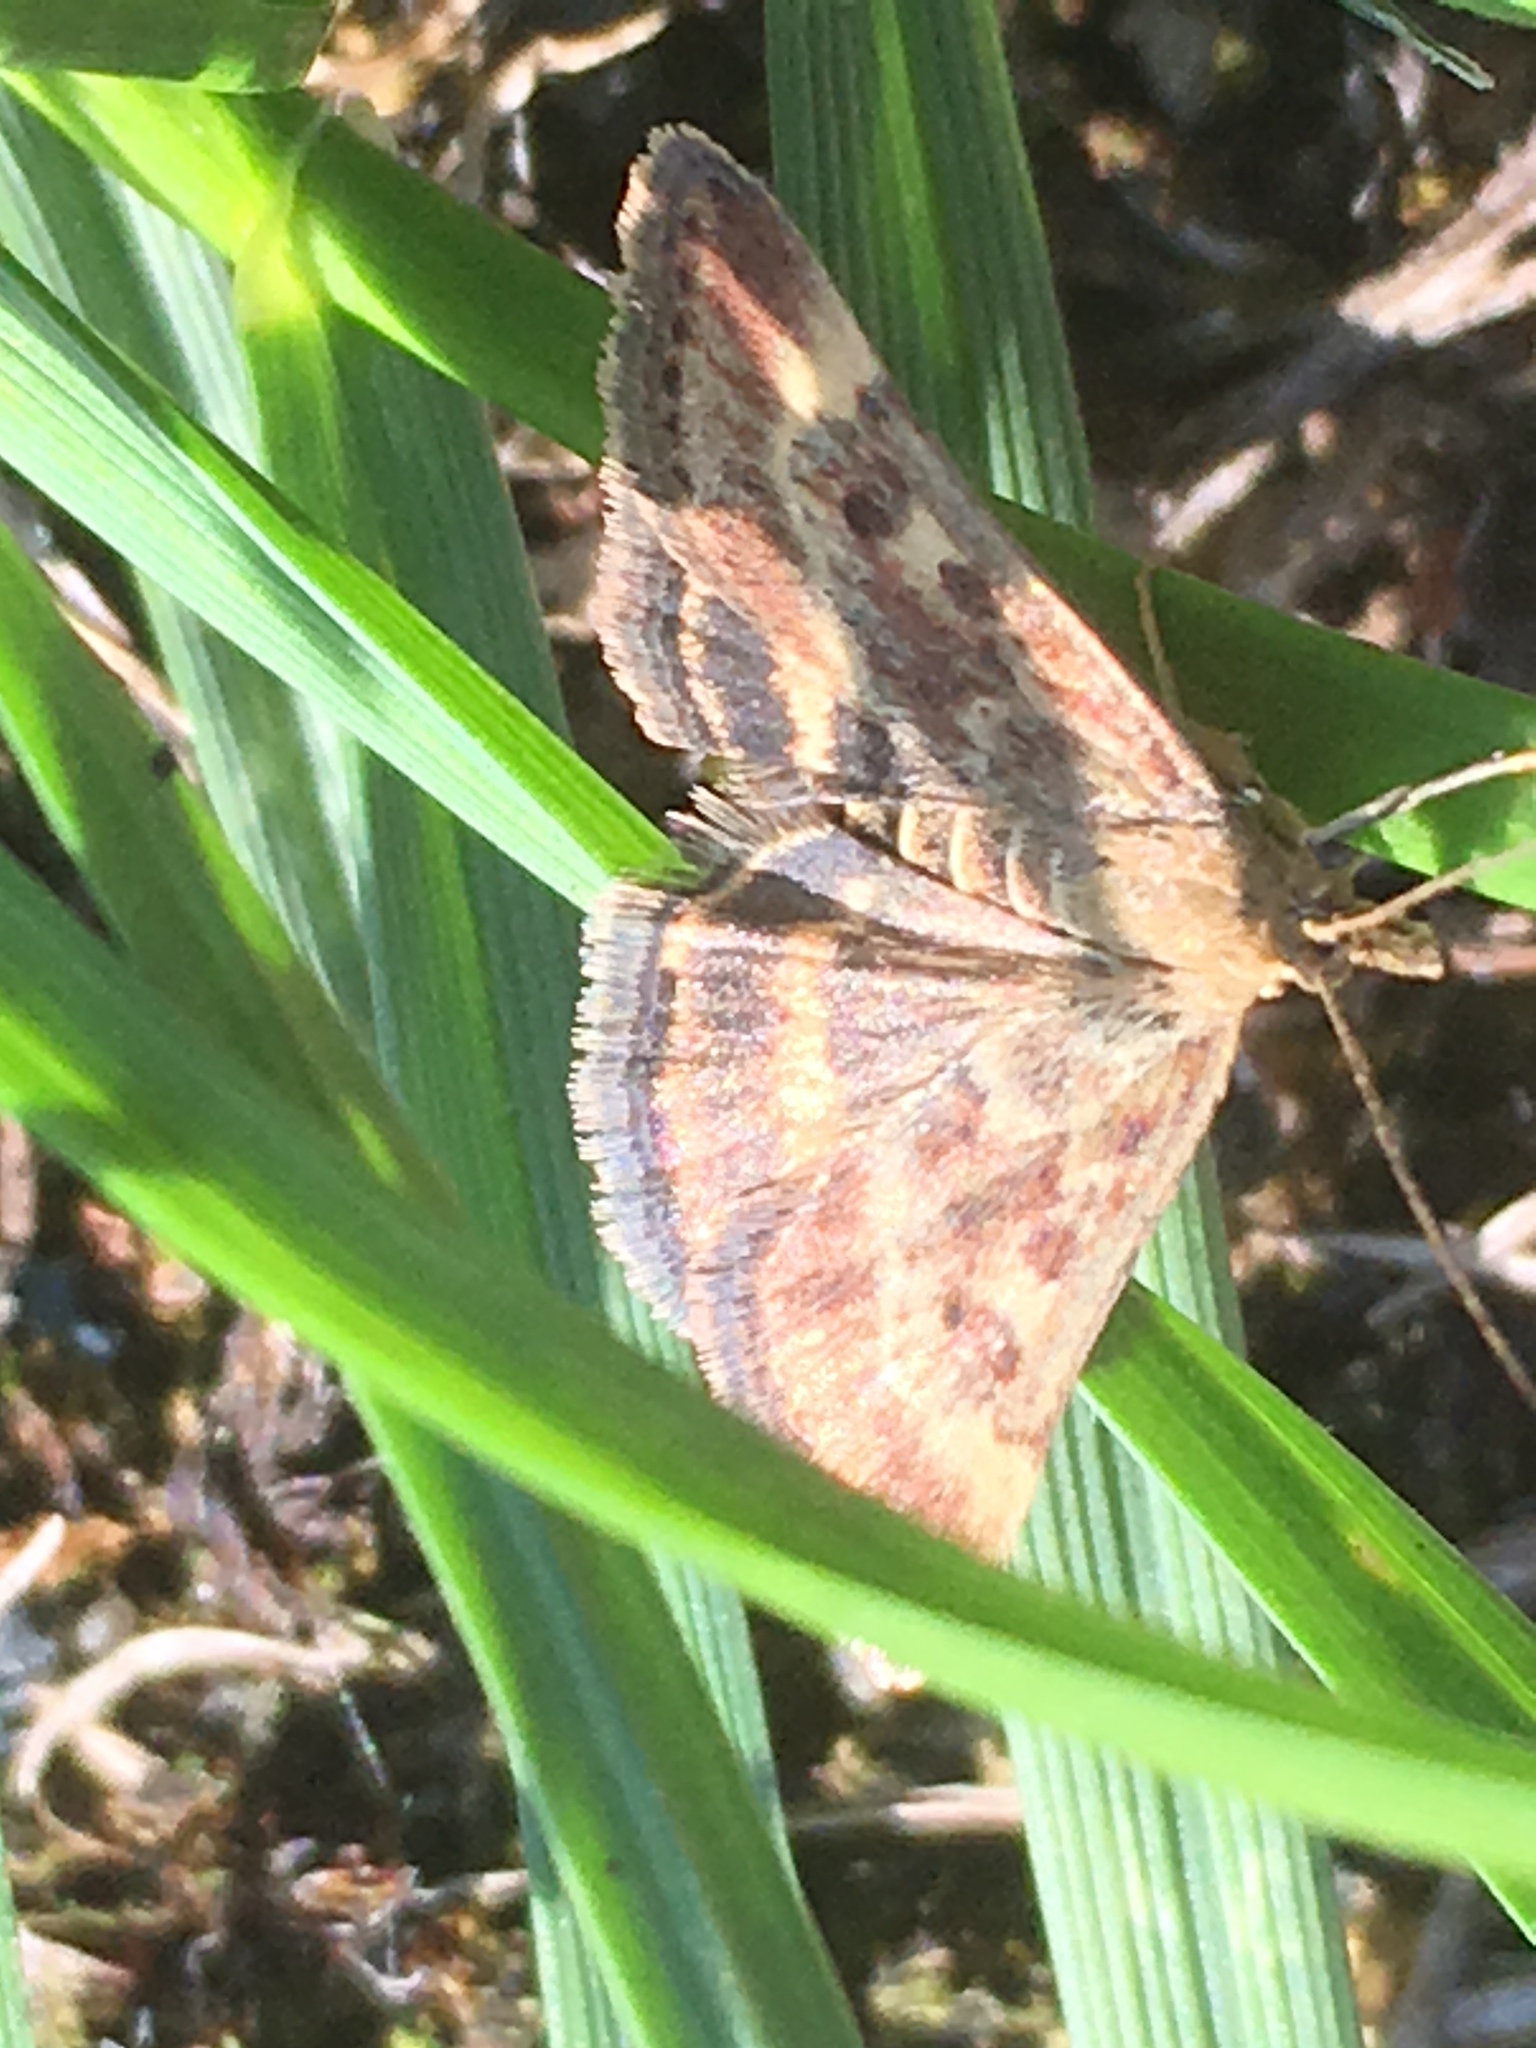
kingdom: Animalia
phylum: Arthropoda
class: Insecta
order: Lepidoptera
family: Crambidae
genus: Pyrausta
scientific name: Pyrausta despicata
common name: Straw-barred pearl
